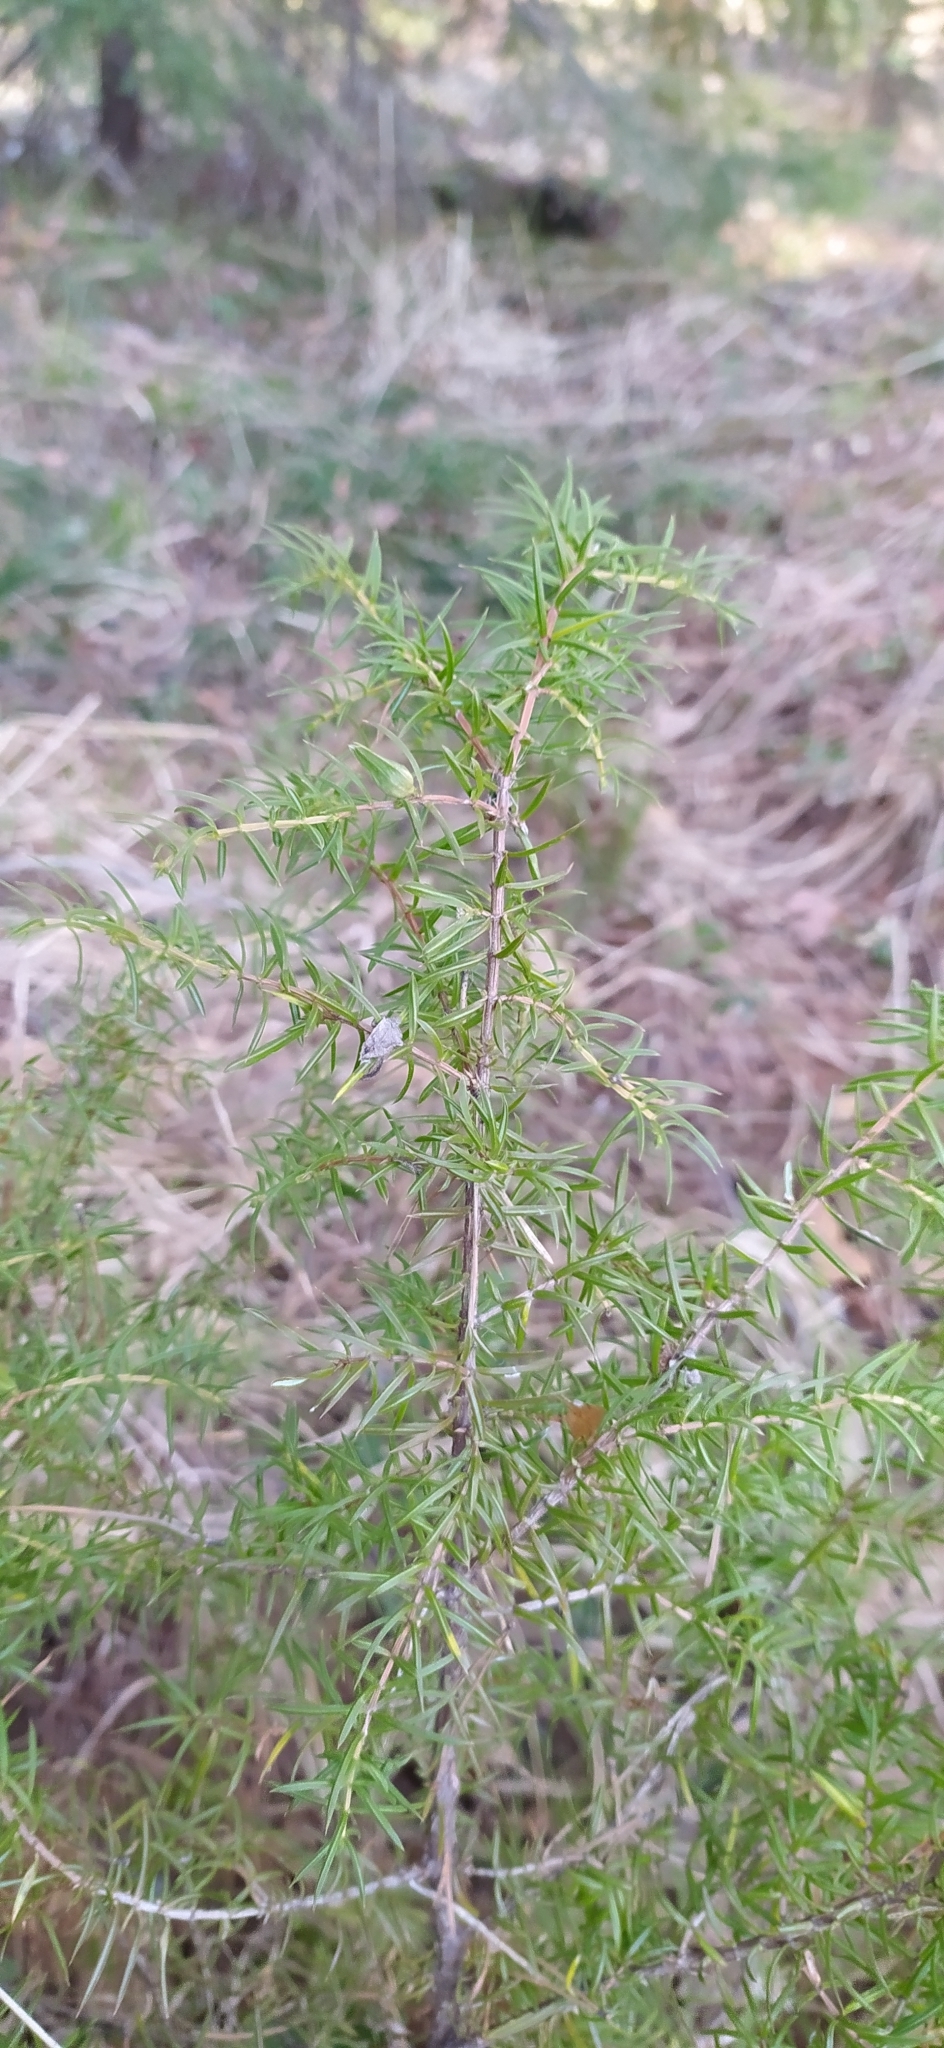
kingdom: Plantae
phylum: Tracheophyta
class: Pinopsida
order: Pinales
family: Cupressaceae
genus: Juniperus
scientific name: Juniperus communis
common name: Common juniper
